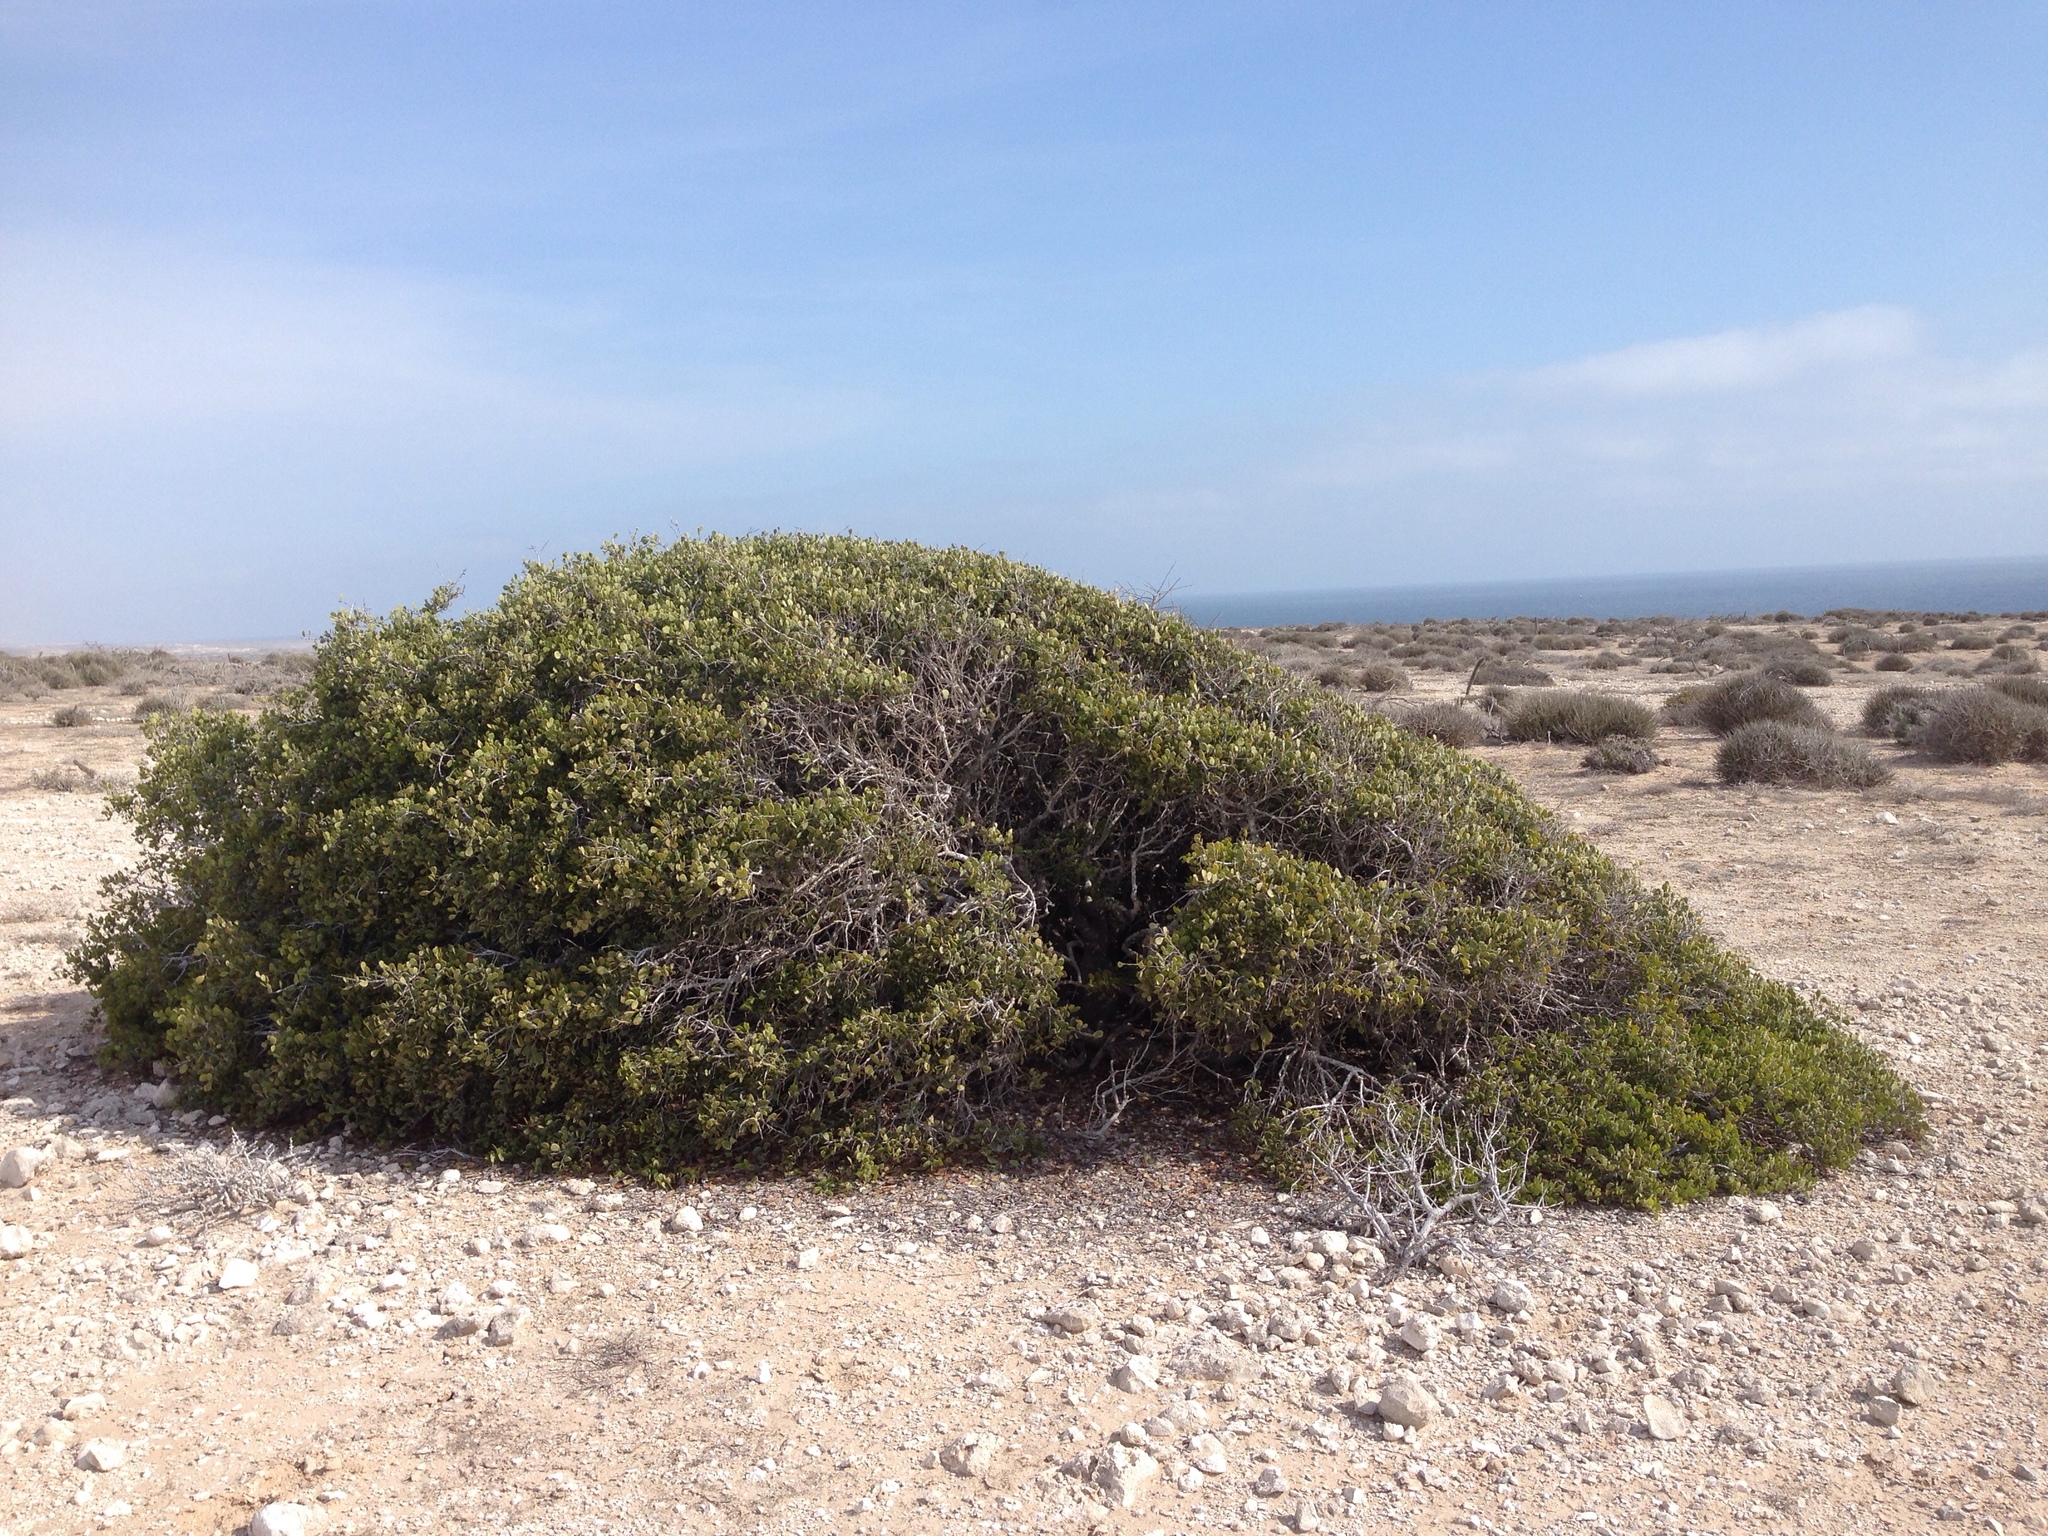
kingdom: Plantae
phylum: Tracheophyta
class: Magnoliopsida
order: Celastrales
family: Celastraceae
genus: Tricerma
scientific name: Tricerma phyllanthoides
